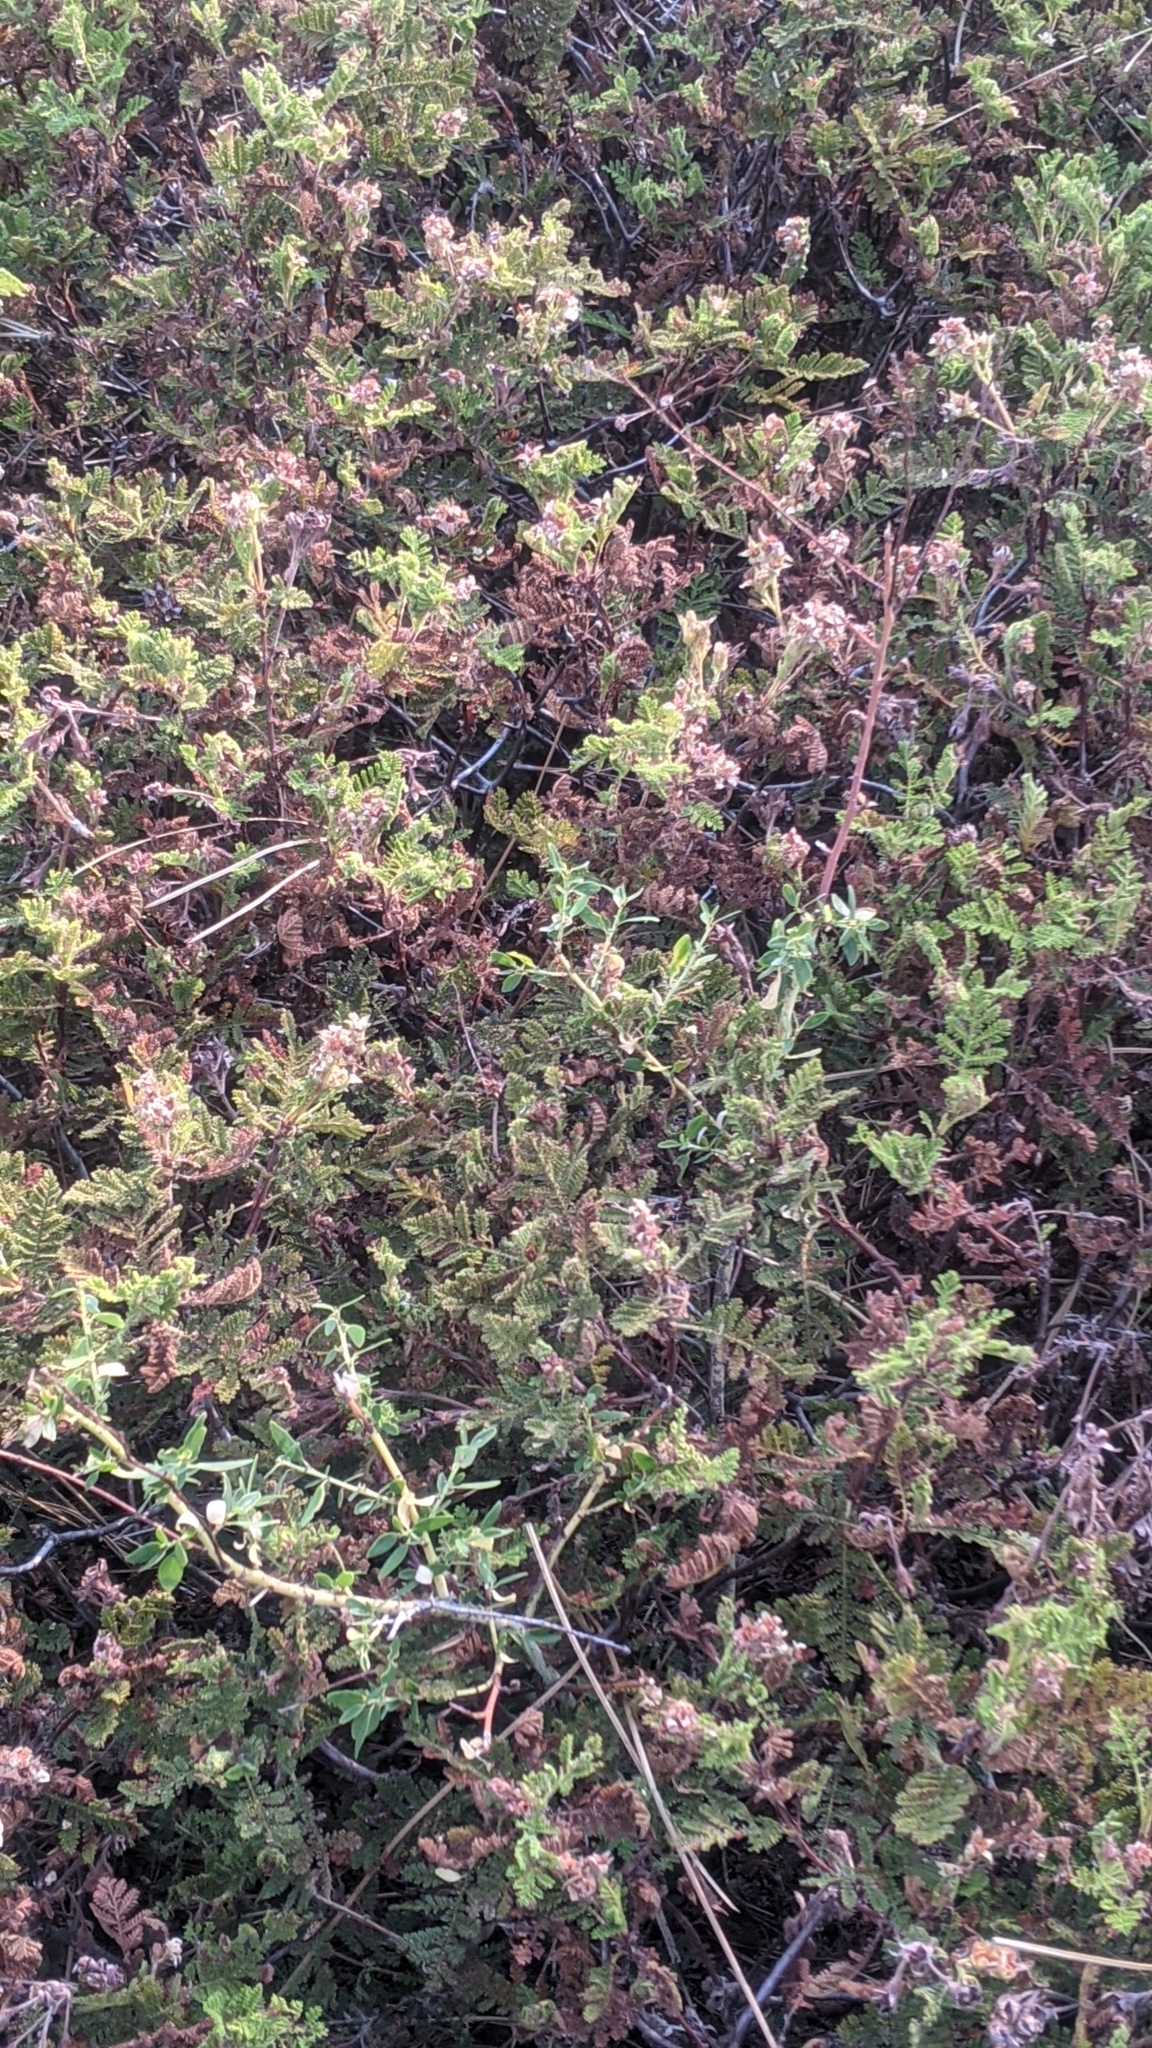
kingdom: Plantae
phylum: Tracheophyta
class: Magnoliopsida
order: Rosales
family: Rosaceae
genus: Chamaebatia
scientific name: Chamaebatia foliolosa
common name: Mountain misery
